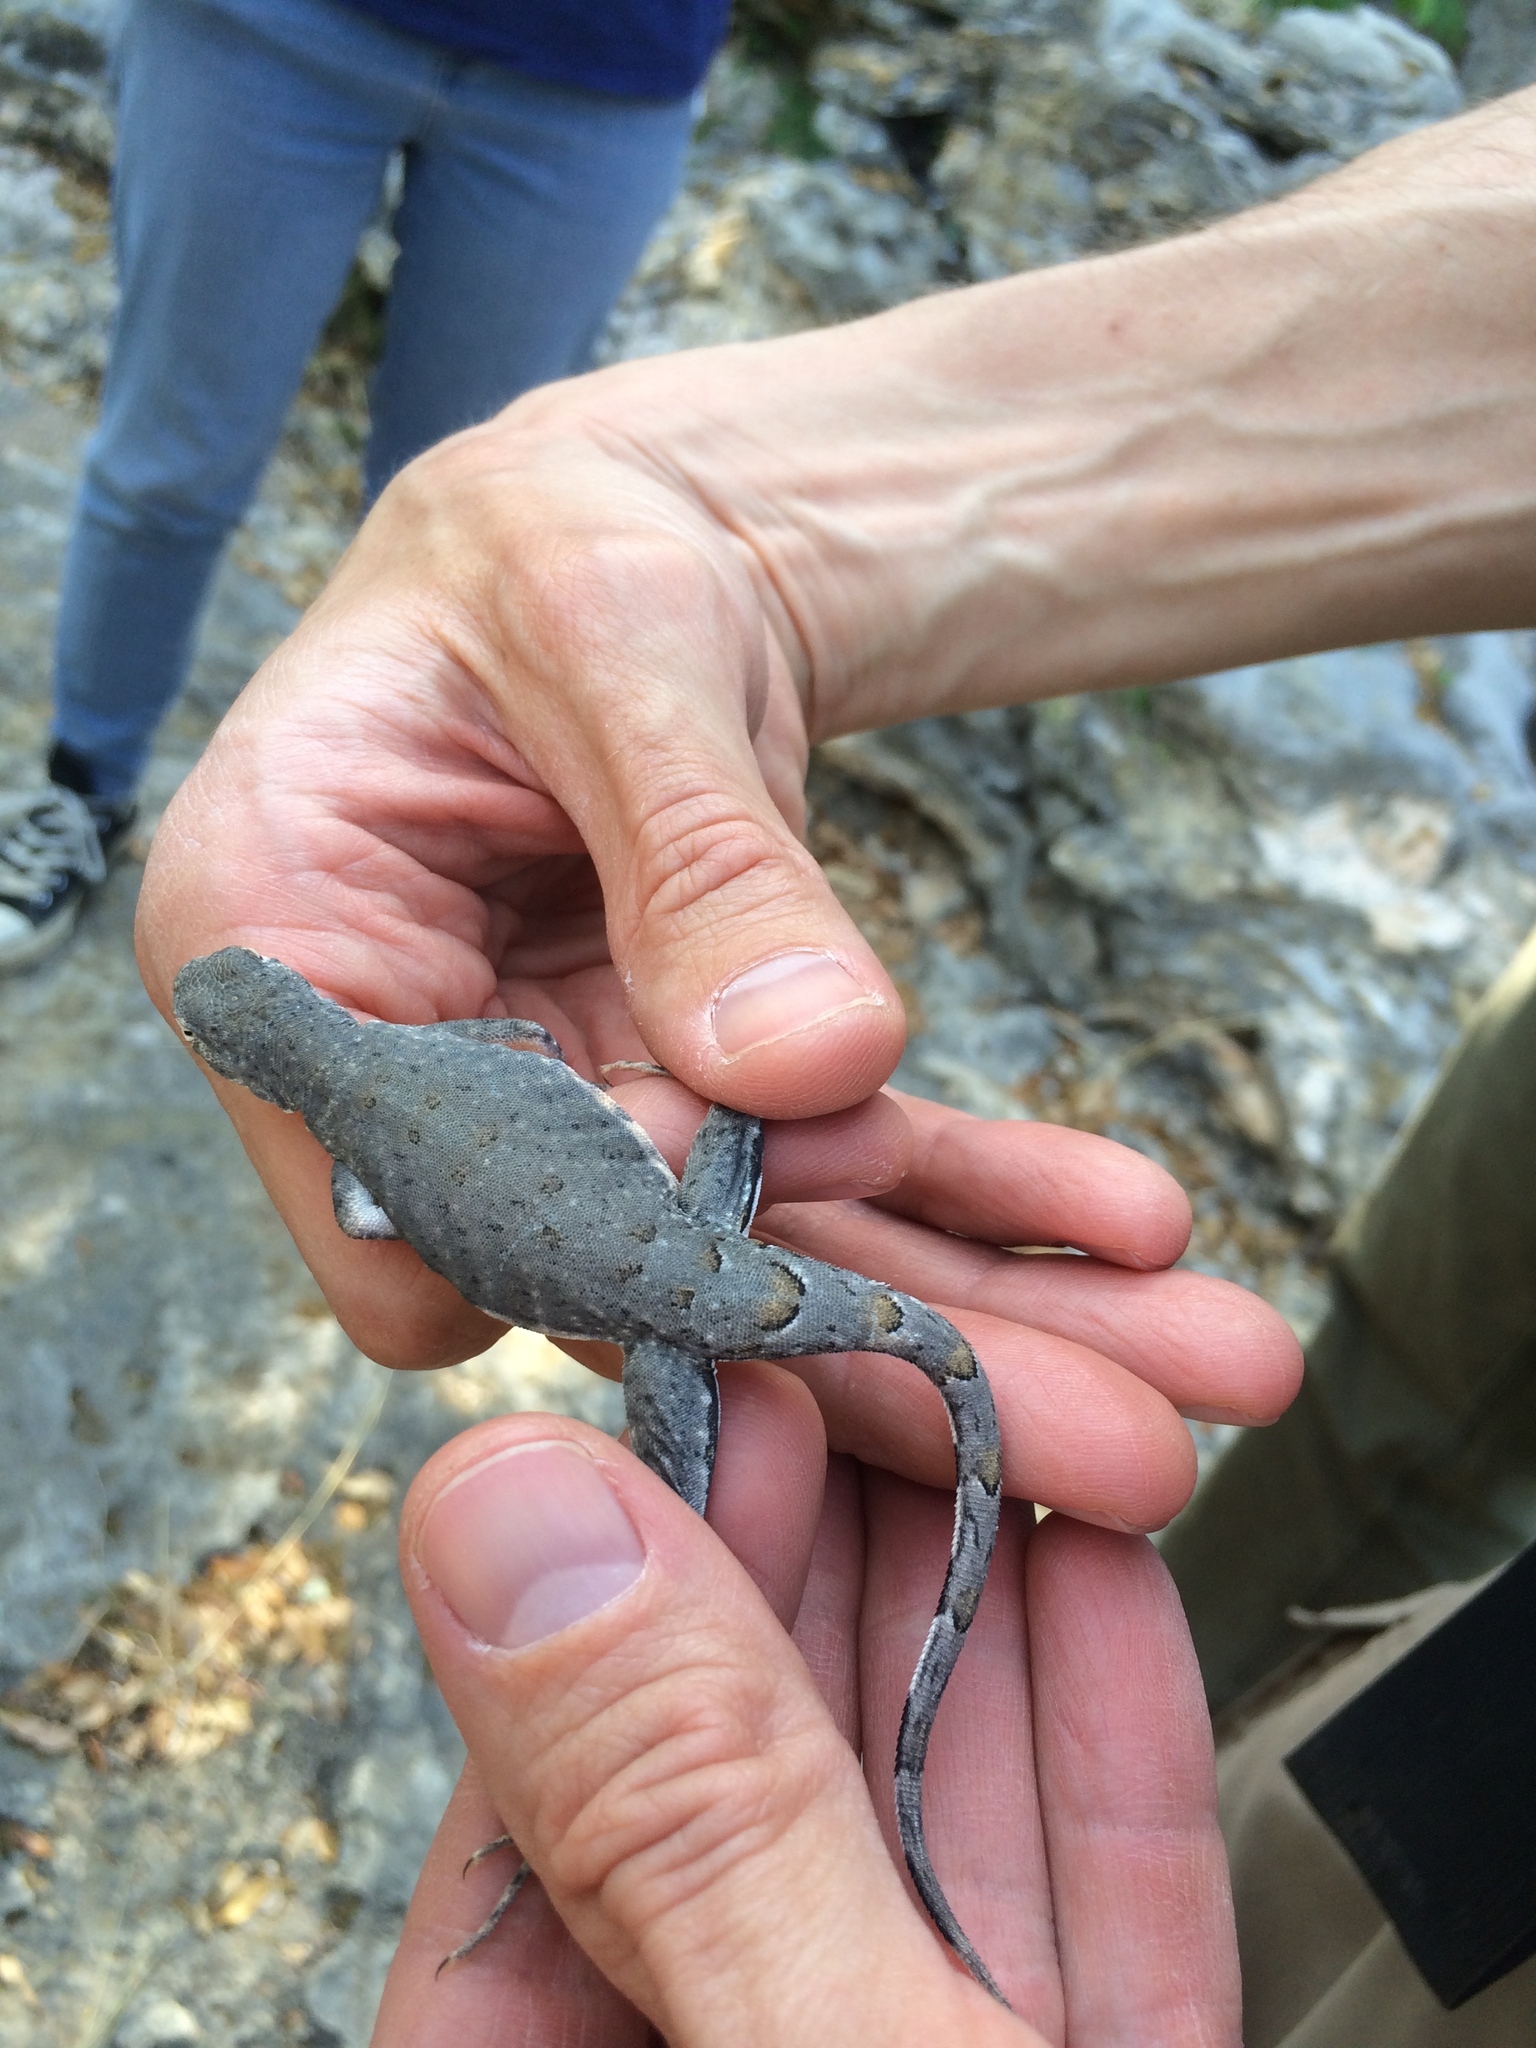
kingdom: Animalia
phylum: Chordata
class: Squamata
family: Phrynosomatidae
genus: Cophosaurus
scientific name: Cophosaurus texanus
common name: Greater earless lizard
